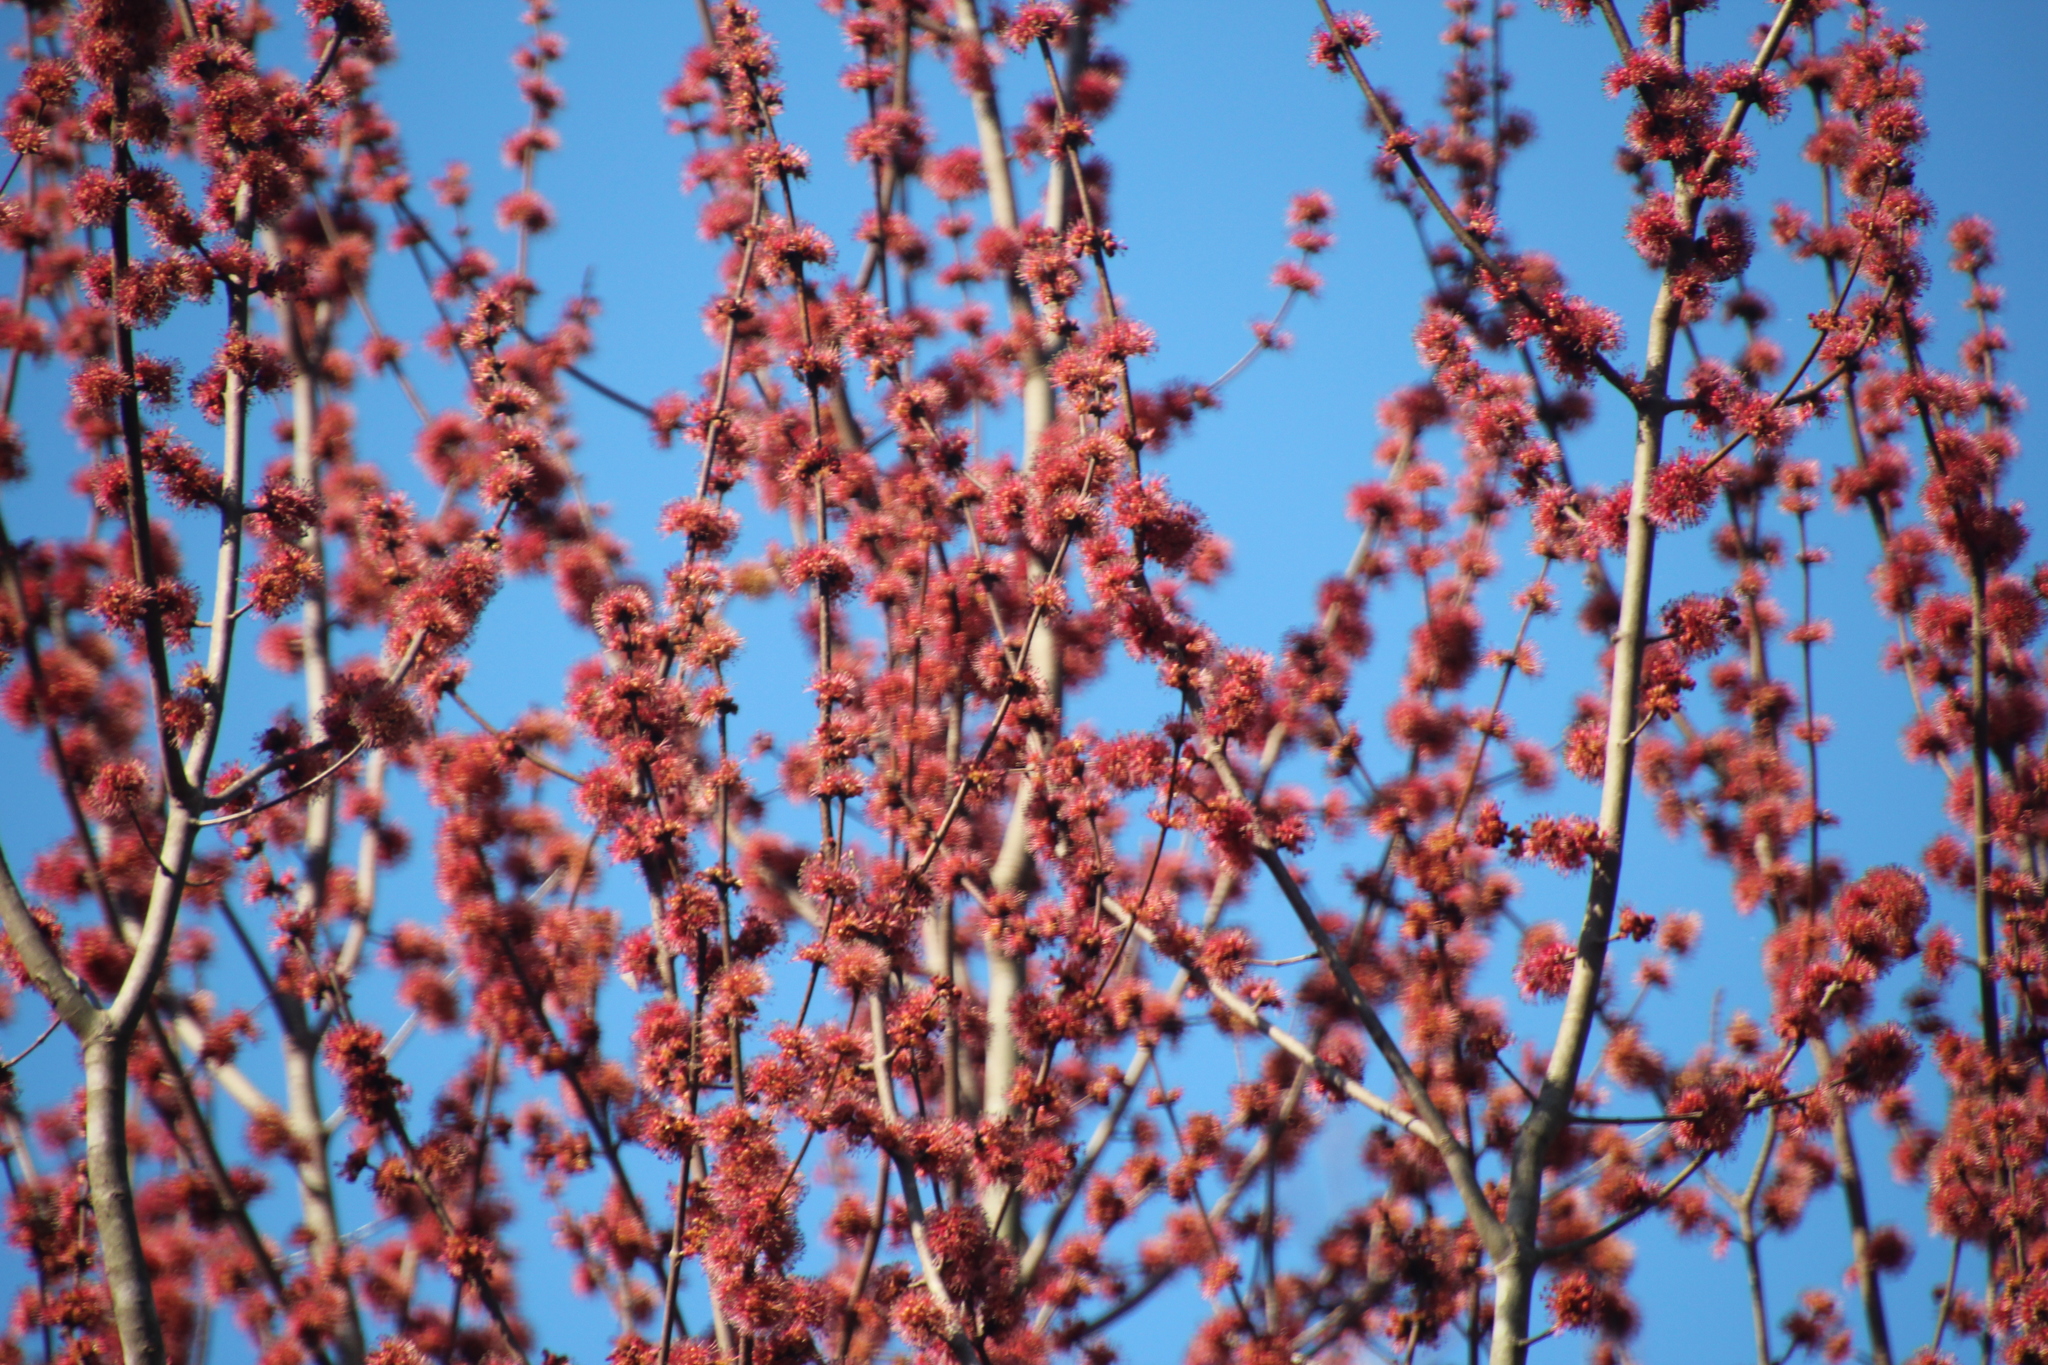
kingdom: Plantae
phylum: Tracheophyta
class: Magnoliopsida
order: Sapindales
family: Sapindaceae
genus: Acer
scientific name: Acer rubrum
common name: Red maple
